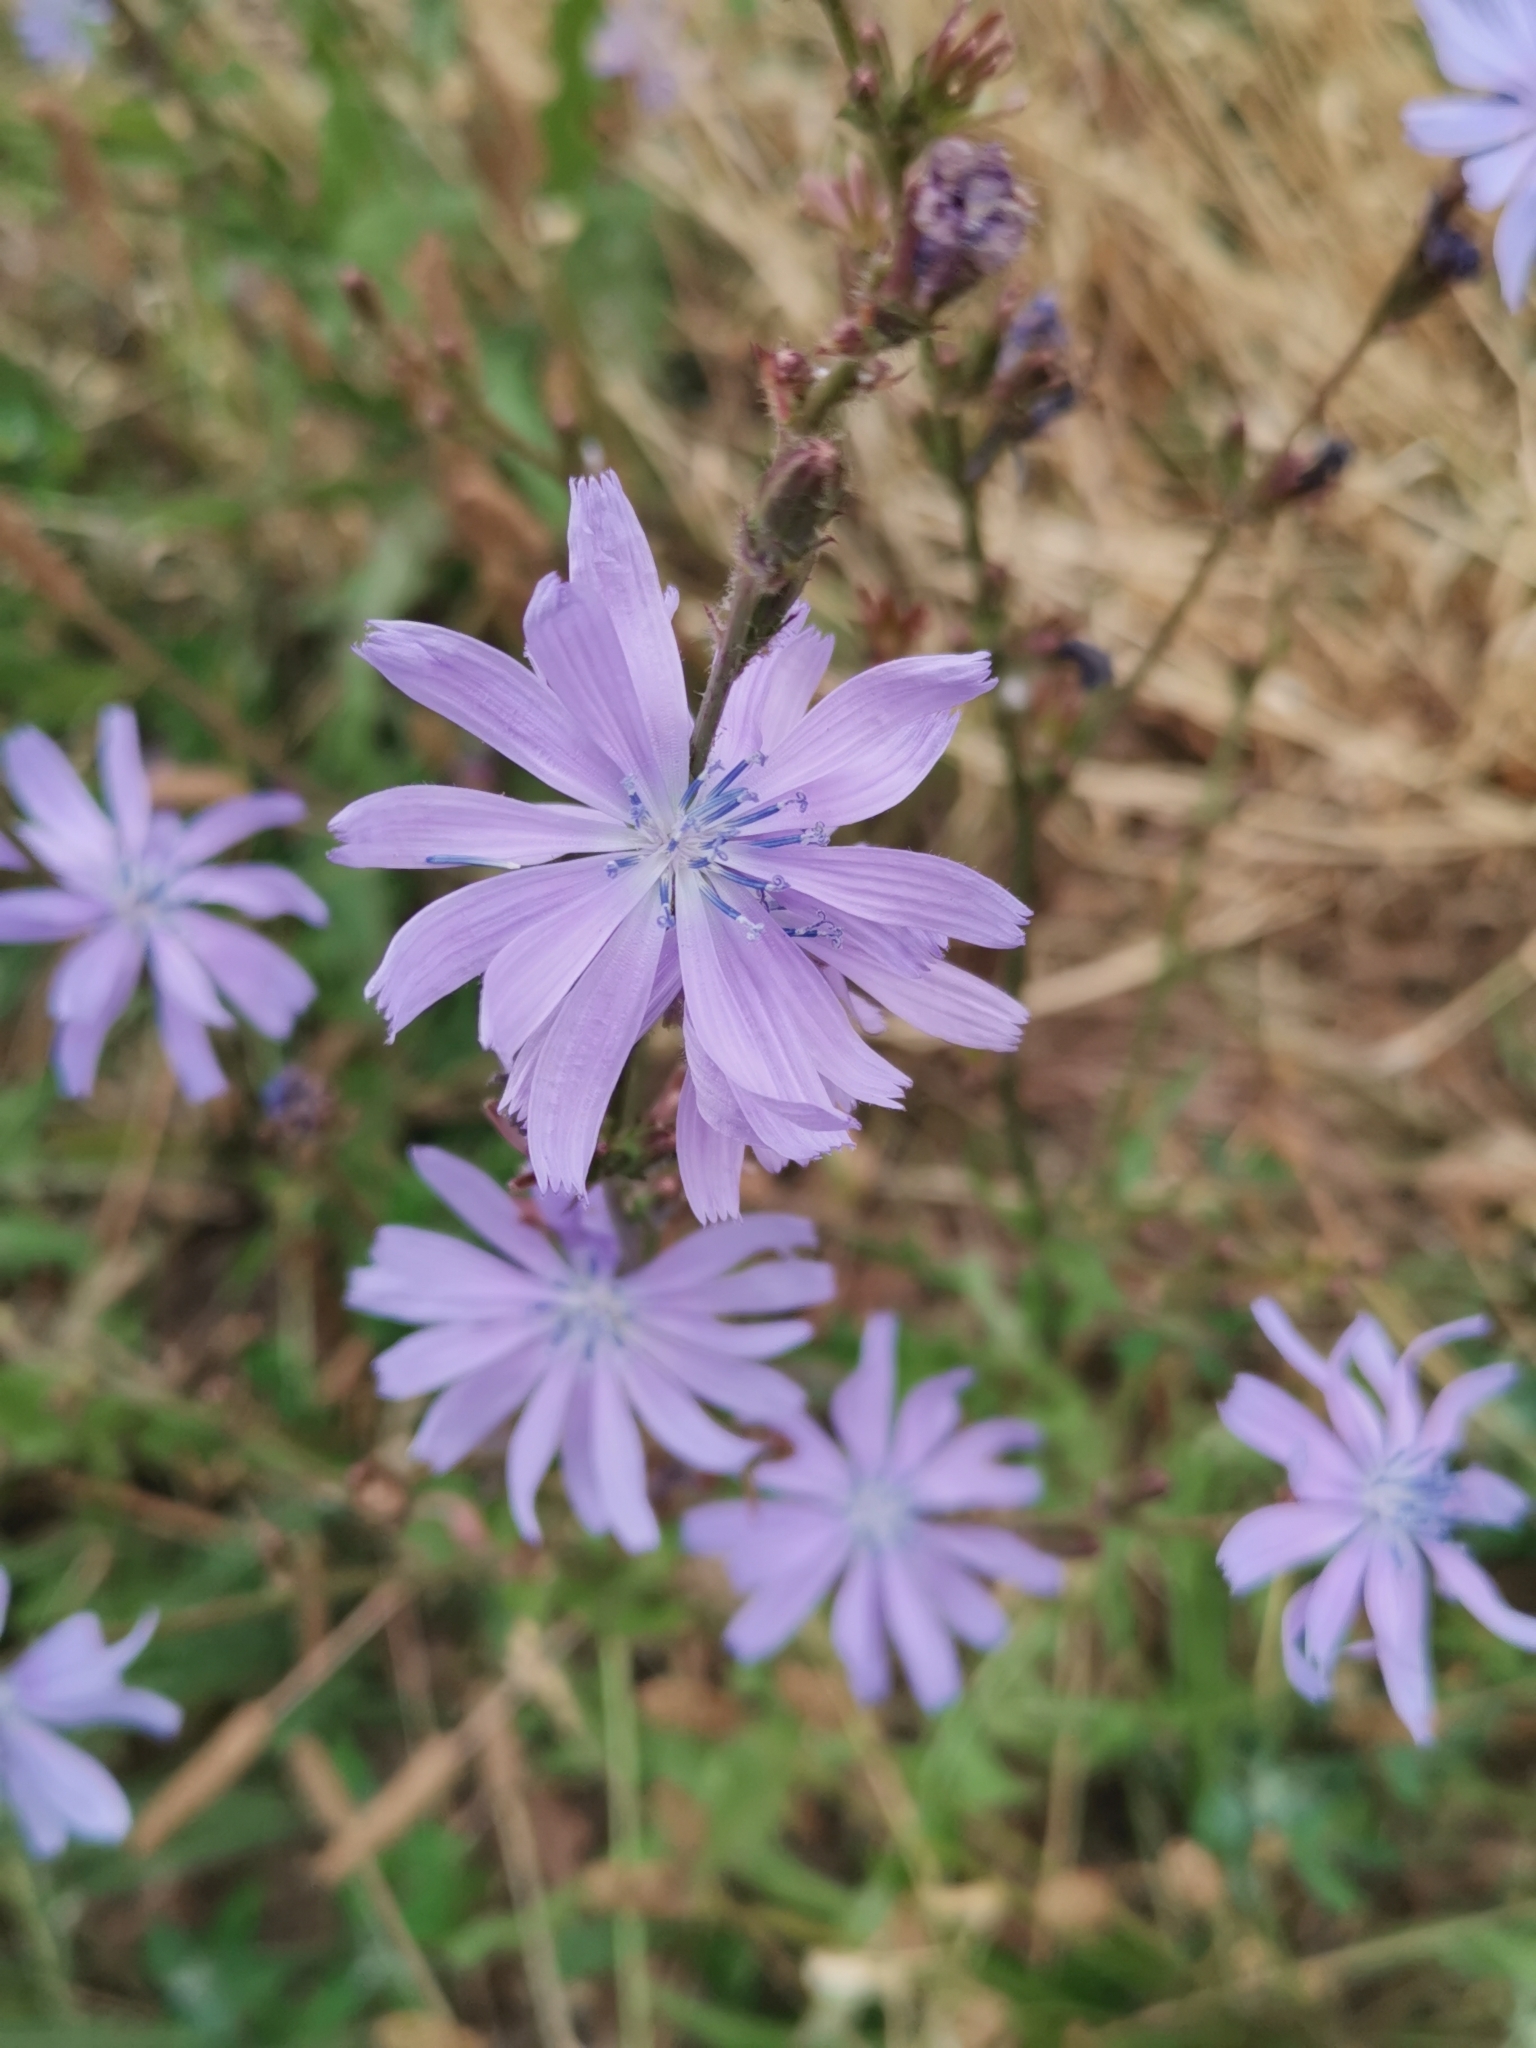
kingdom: Plantae
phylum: Tracheophyta
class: Magnoliopsida
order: Asterales
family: Asteraceae
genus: Cichorium
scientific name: Cichorium intybus
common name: Chicory
